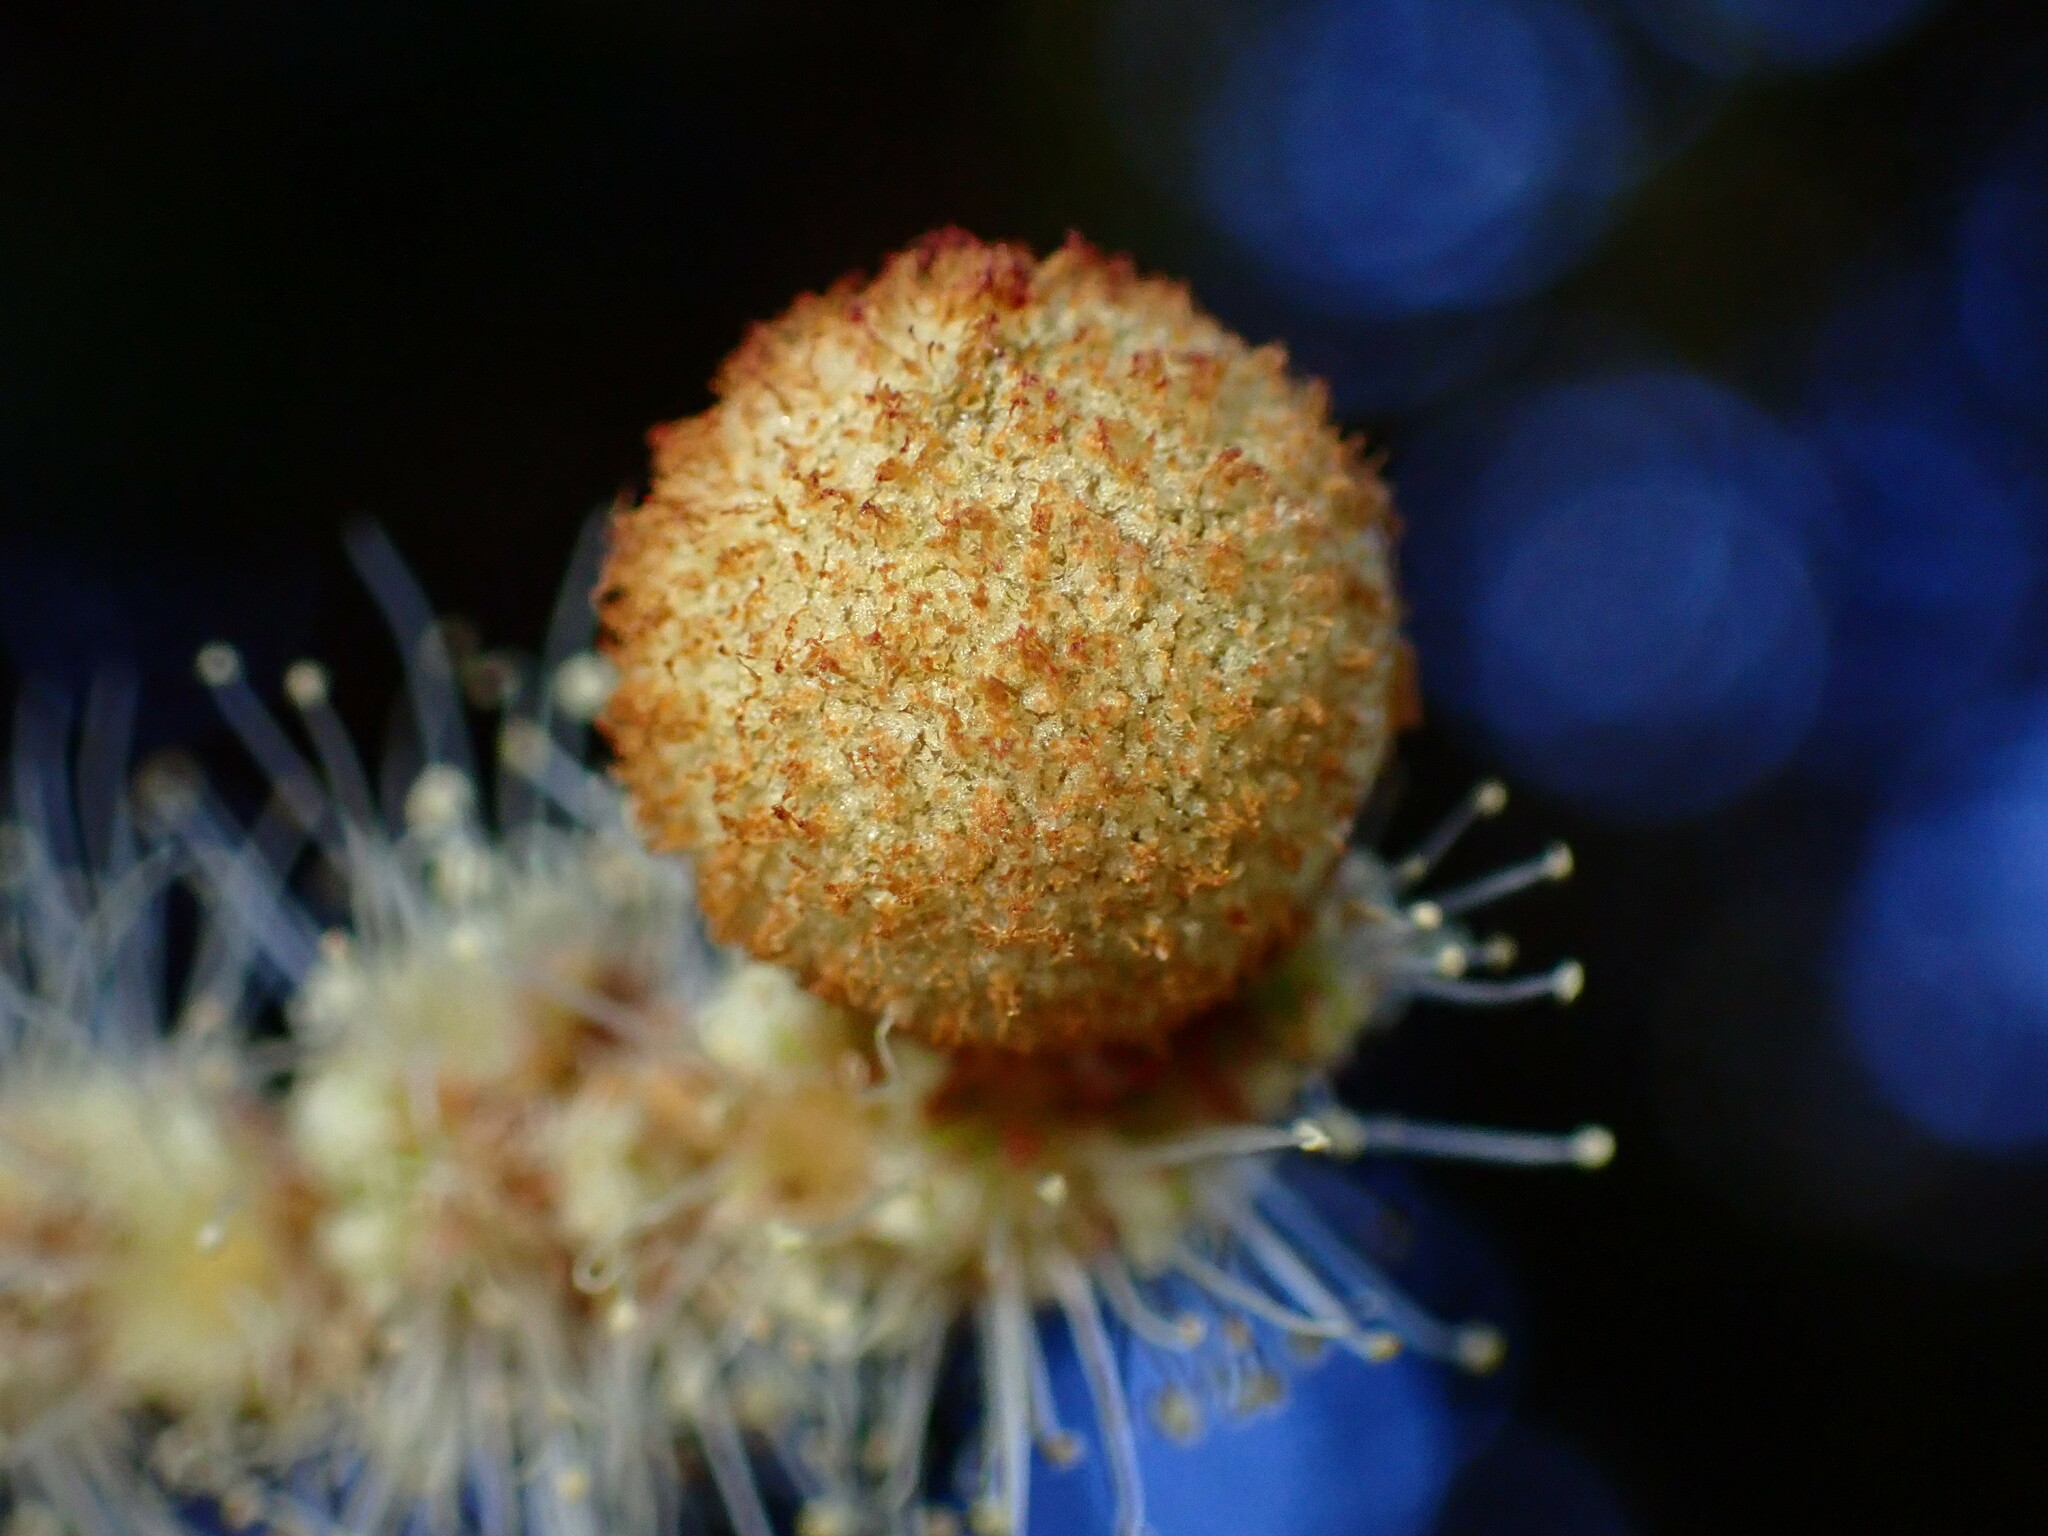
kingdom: Animalia
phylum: Arthropoda
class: Insecta
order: Hymenoptera
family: Cynipidae
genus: Synergus
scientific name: Synergus castanopsidis
